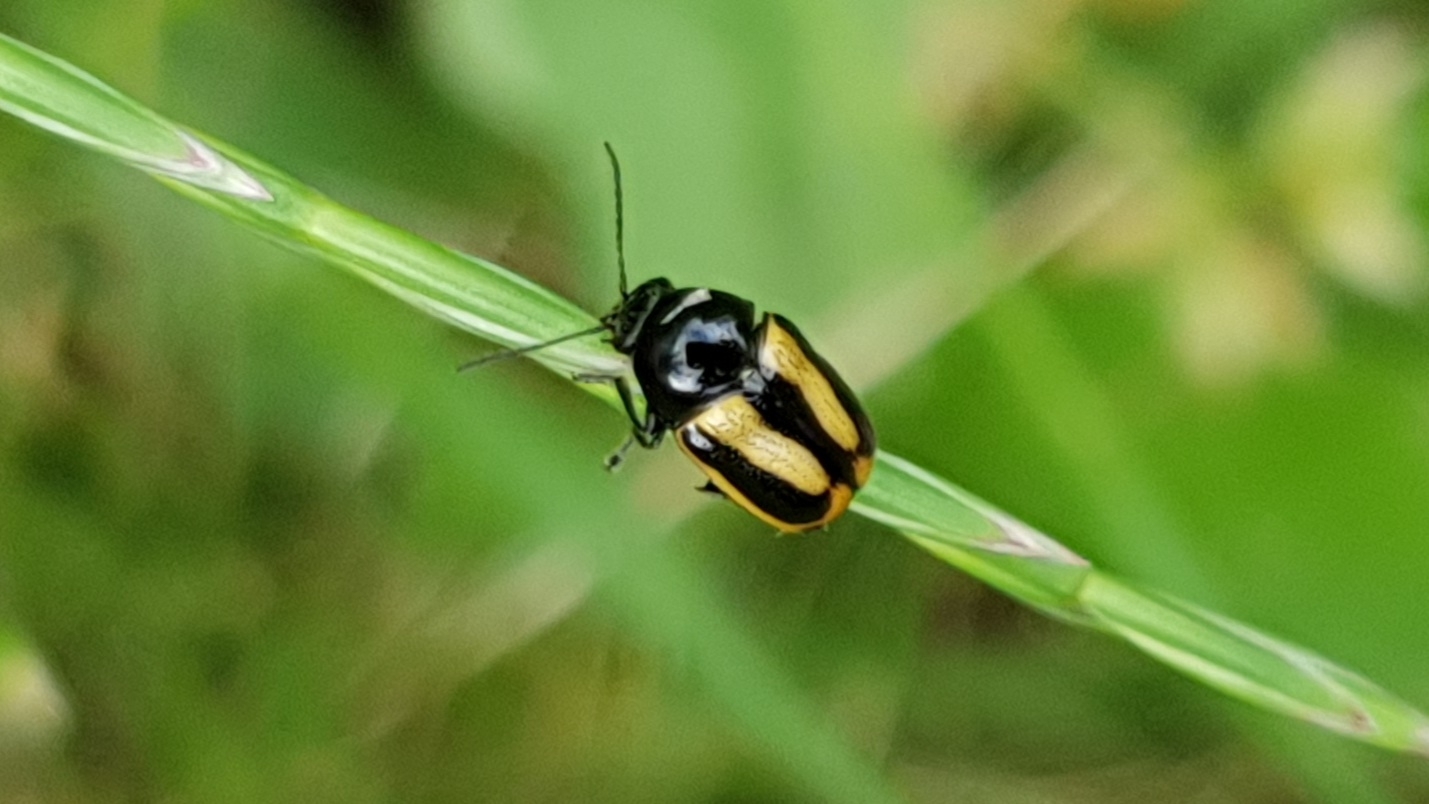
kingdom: Animalia
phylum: Arthropoda
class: Insecta
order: Coleoptera
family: Chrysomelidae
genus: Acalymma
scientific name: Acalymma vittatum
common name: Striped cucumber beetle
